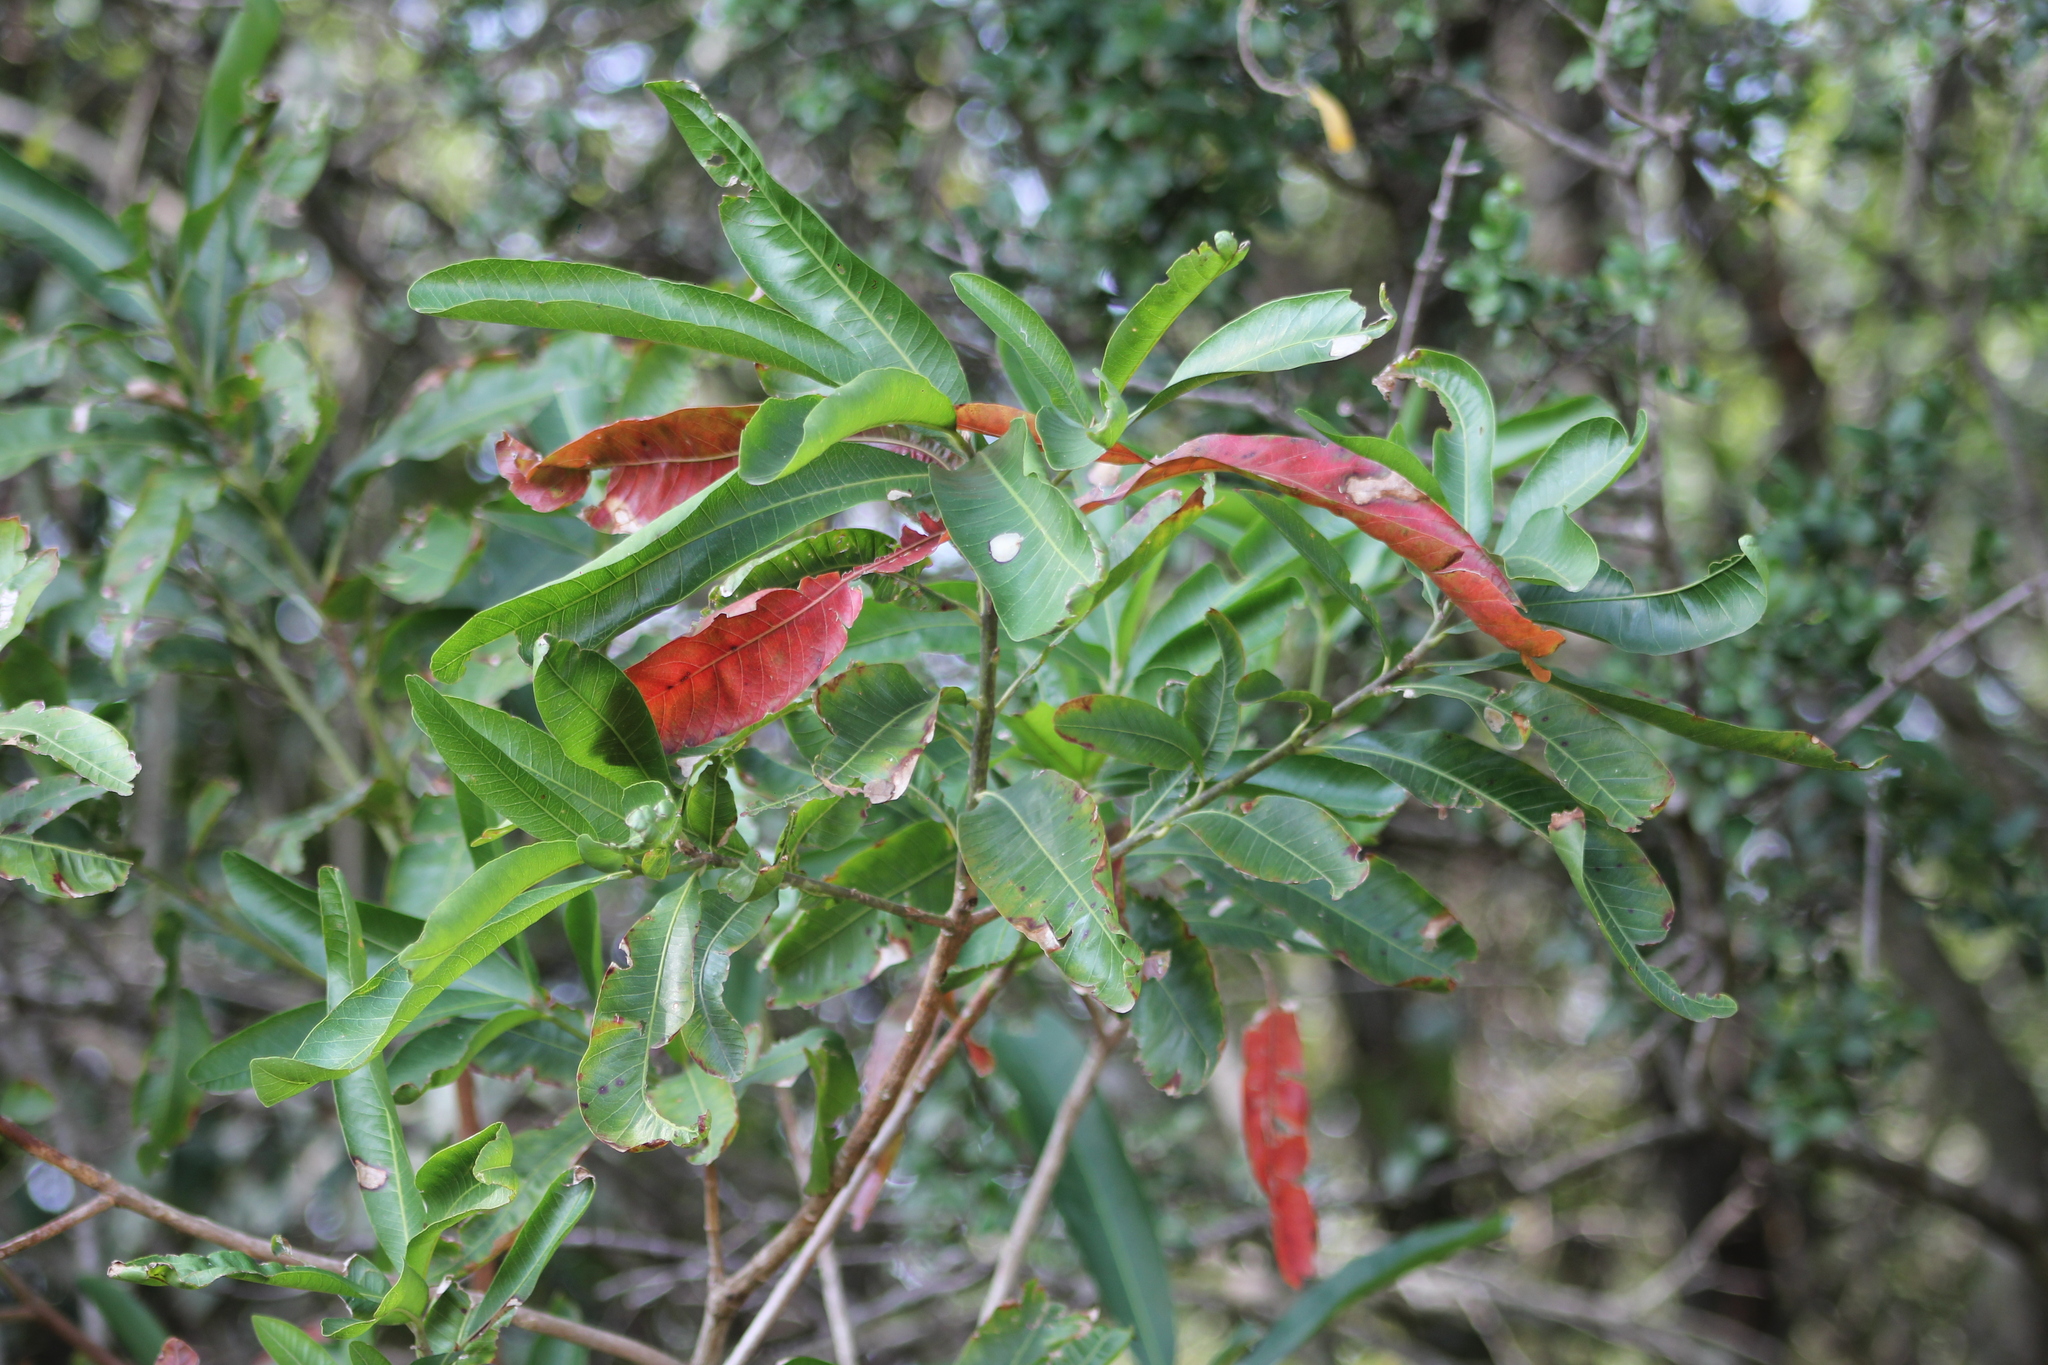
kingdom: Plantae
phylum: Tracheophyta
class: Magnoliopsida
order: Ericales
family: Sapotaceae
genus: Pouteria
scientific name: Pouteria gardneriana
